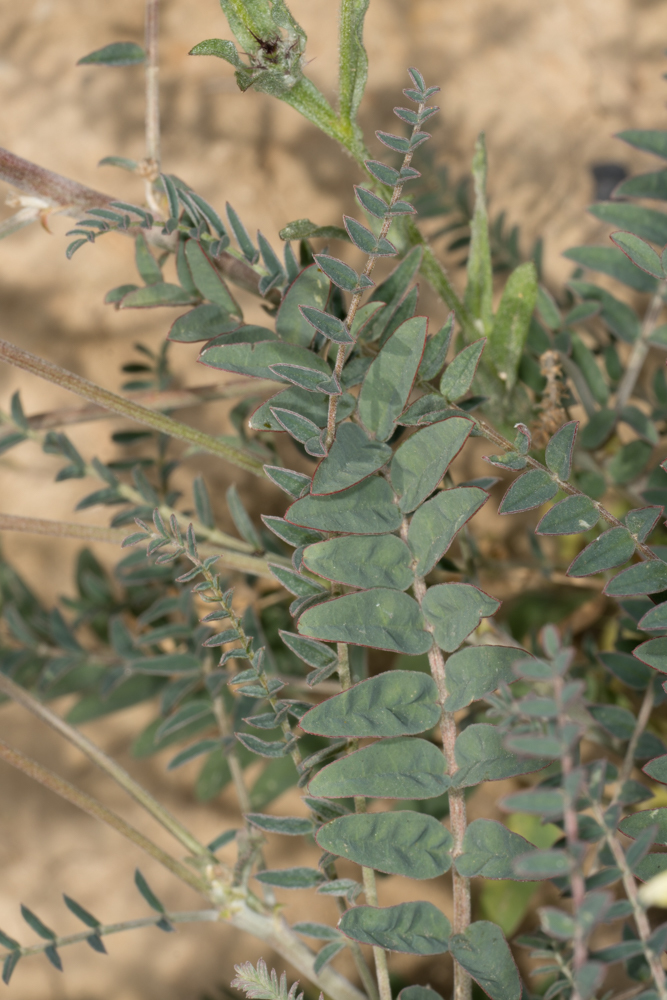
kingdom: Plantae
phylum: Tracheophyta
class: Magnoliopsida
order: Fabales
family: Fabaceae
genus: Astragalus
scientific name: Astragalus trichopodus
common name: Santa barbara milk-vetch
